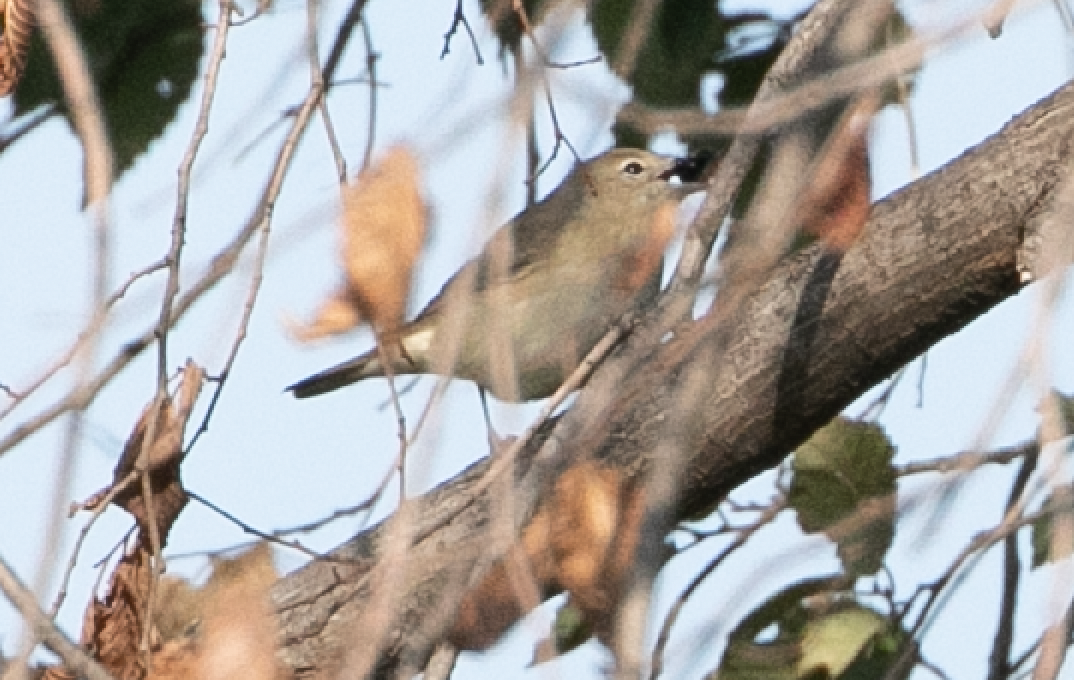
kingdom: Animalia
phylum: Chordata
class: Aves
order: Passeriformes
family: Sylviidae
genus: Sylvia
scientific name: Sylvia borin
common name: Garden warbler
